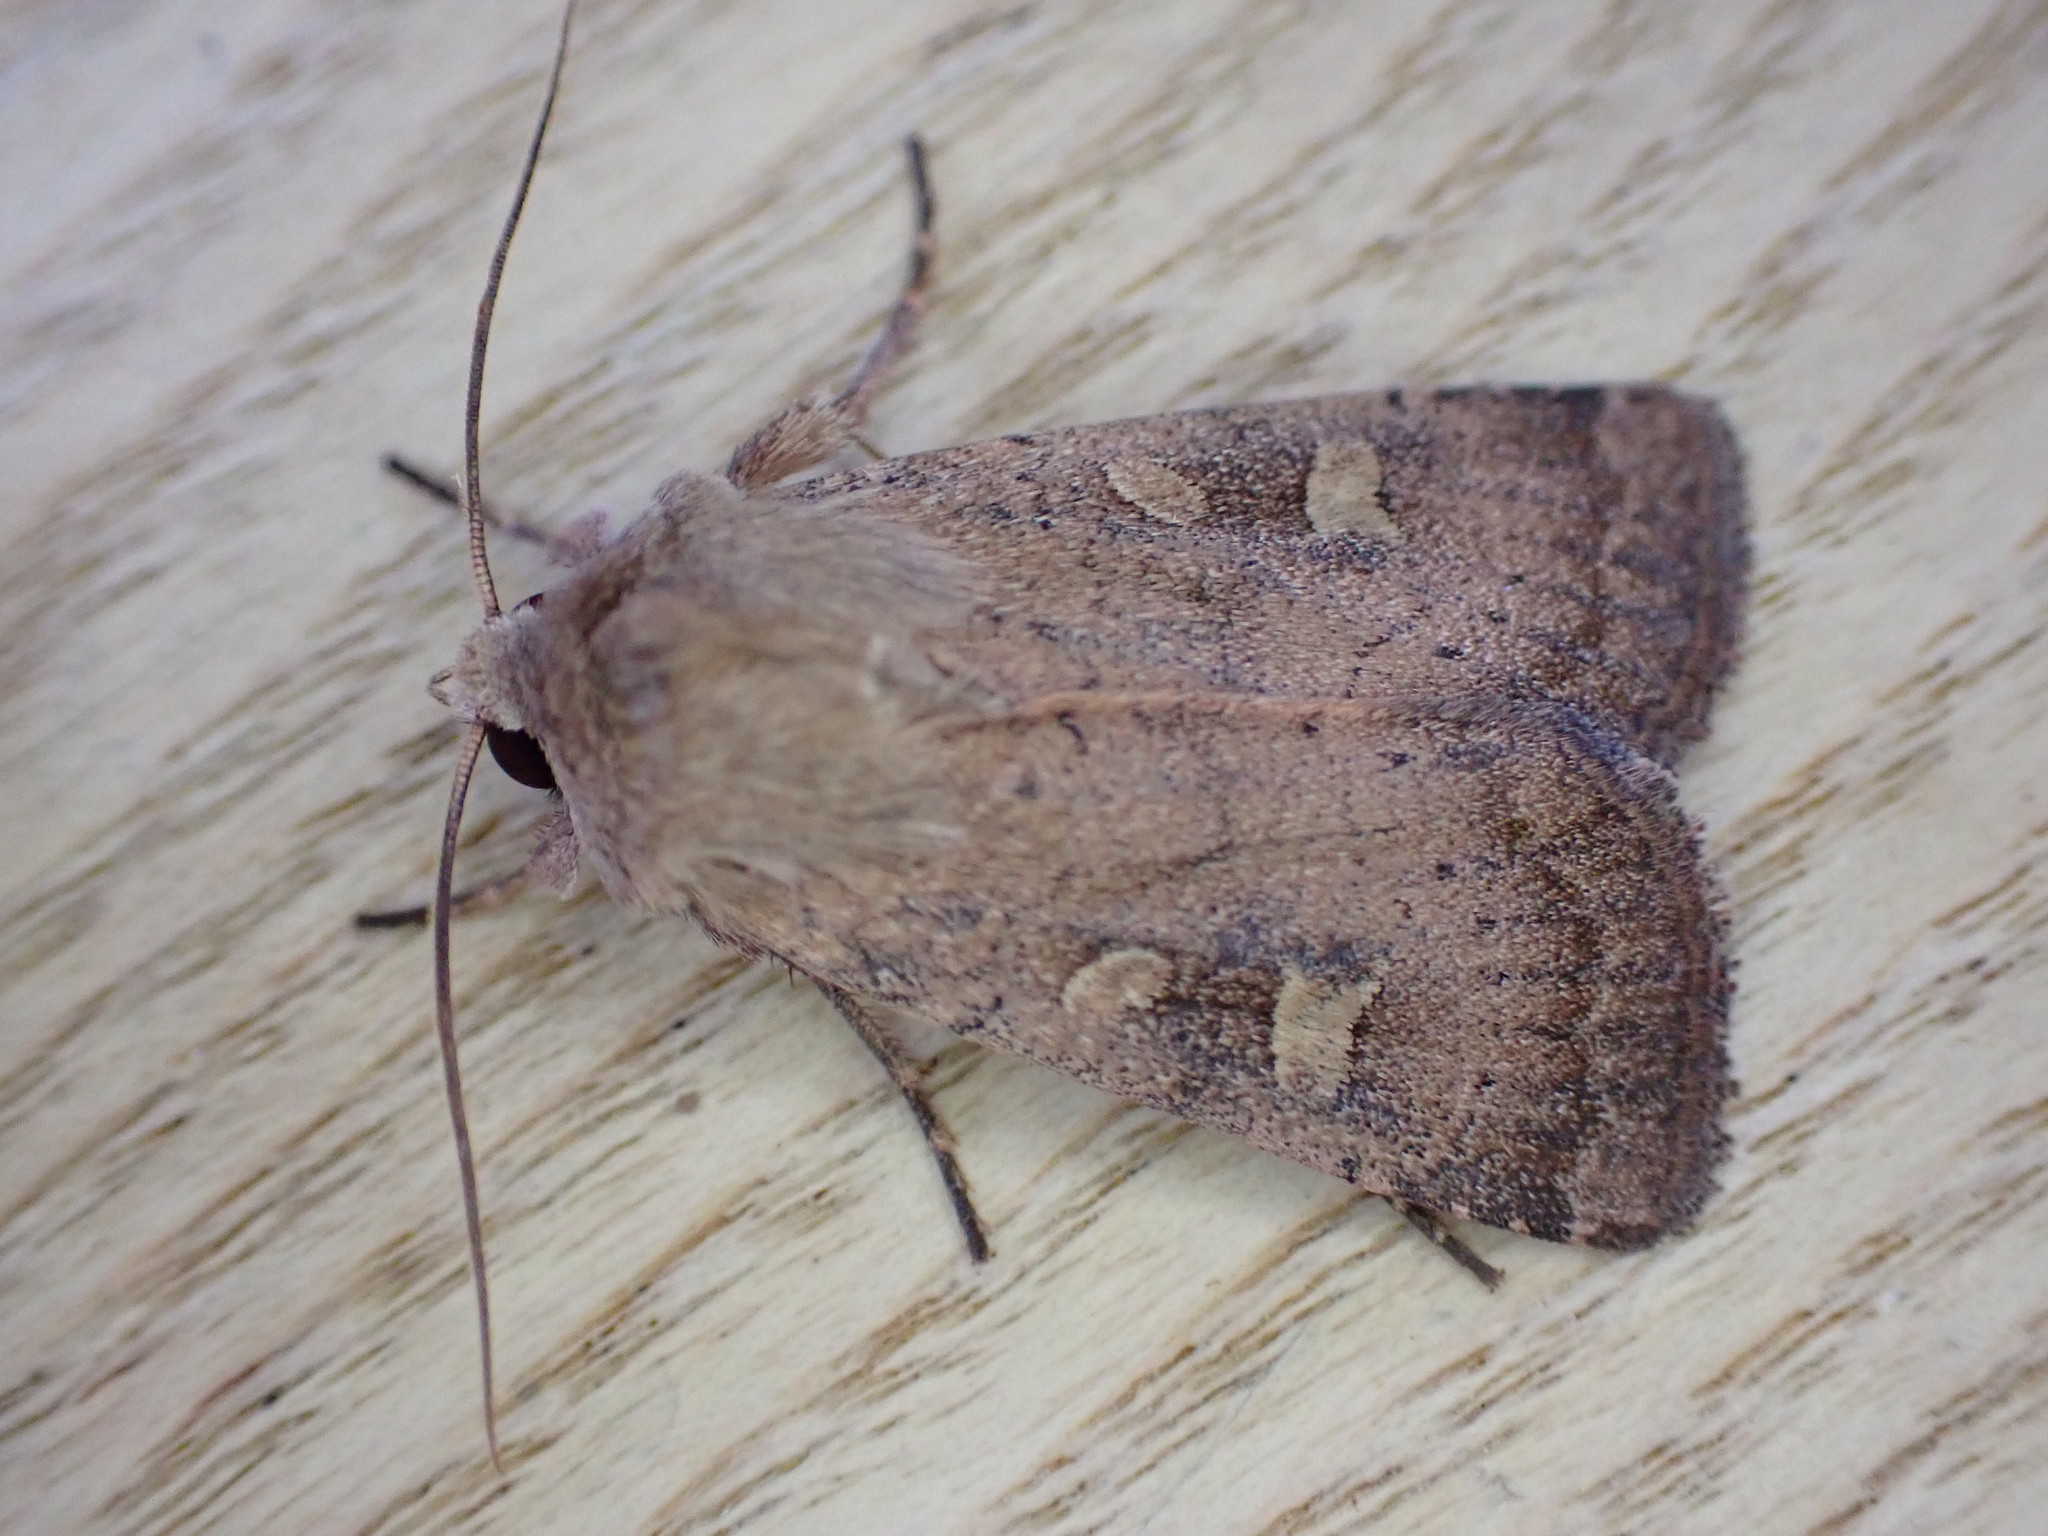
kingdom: Animalia
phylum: Arthropoda
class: Insecta
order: Lepidoptera
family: Noctuidae
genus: Xestia
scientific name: Xestia xanthographa
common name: Square-spot rustic
